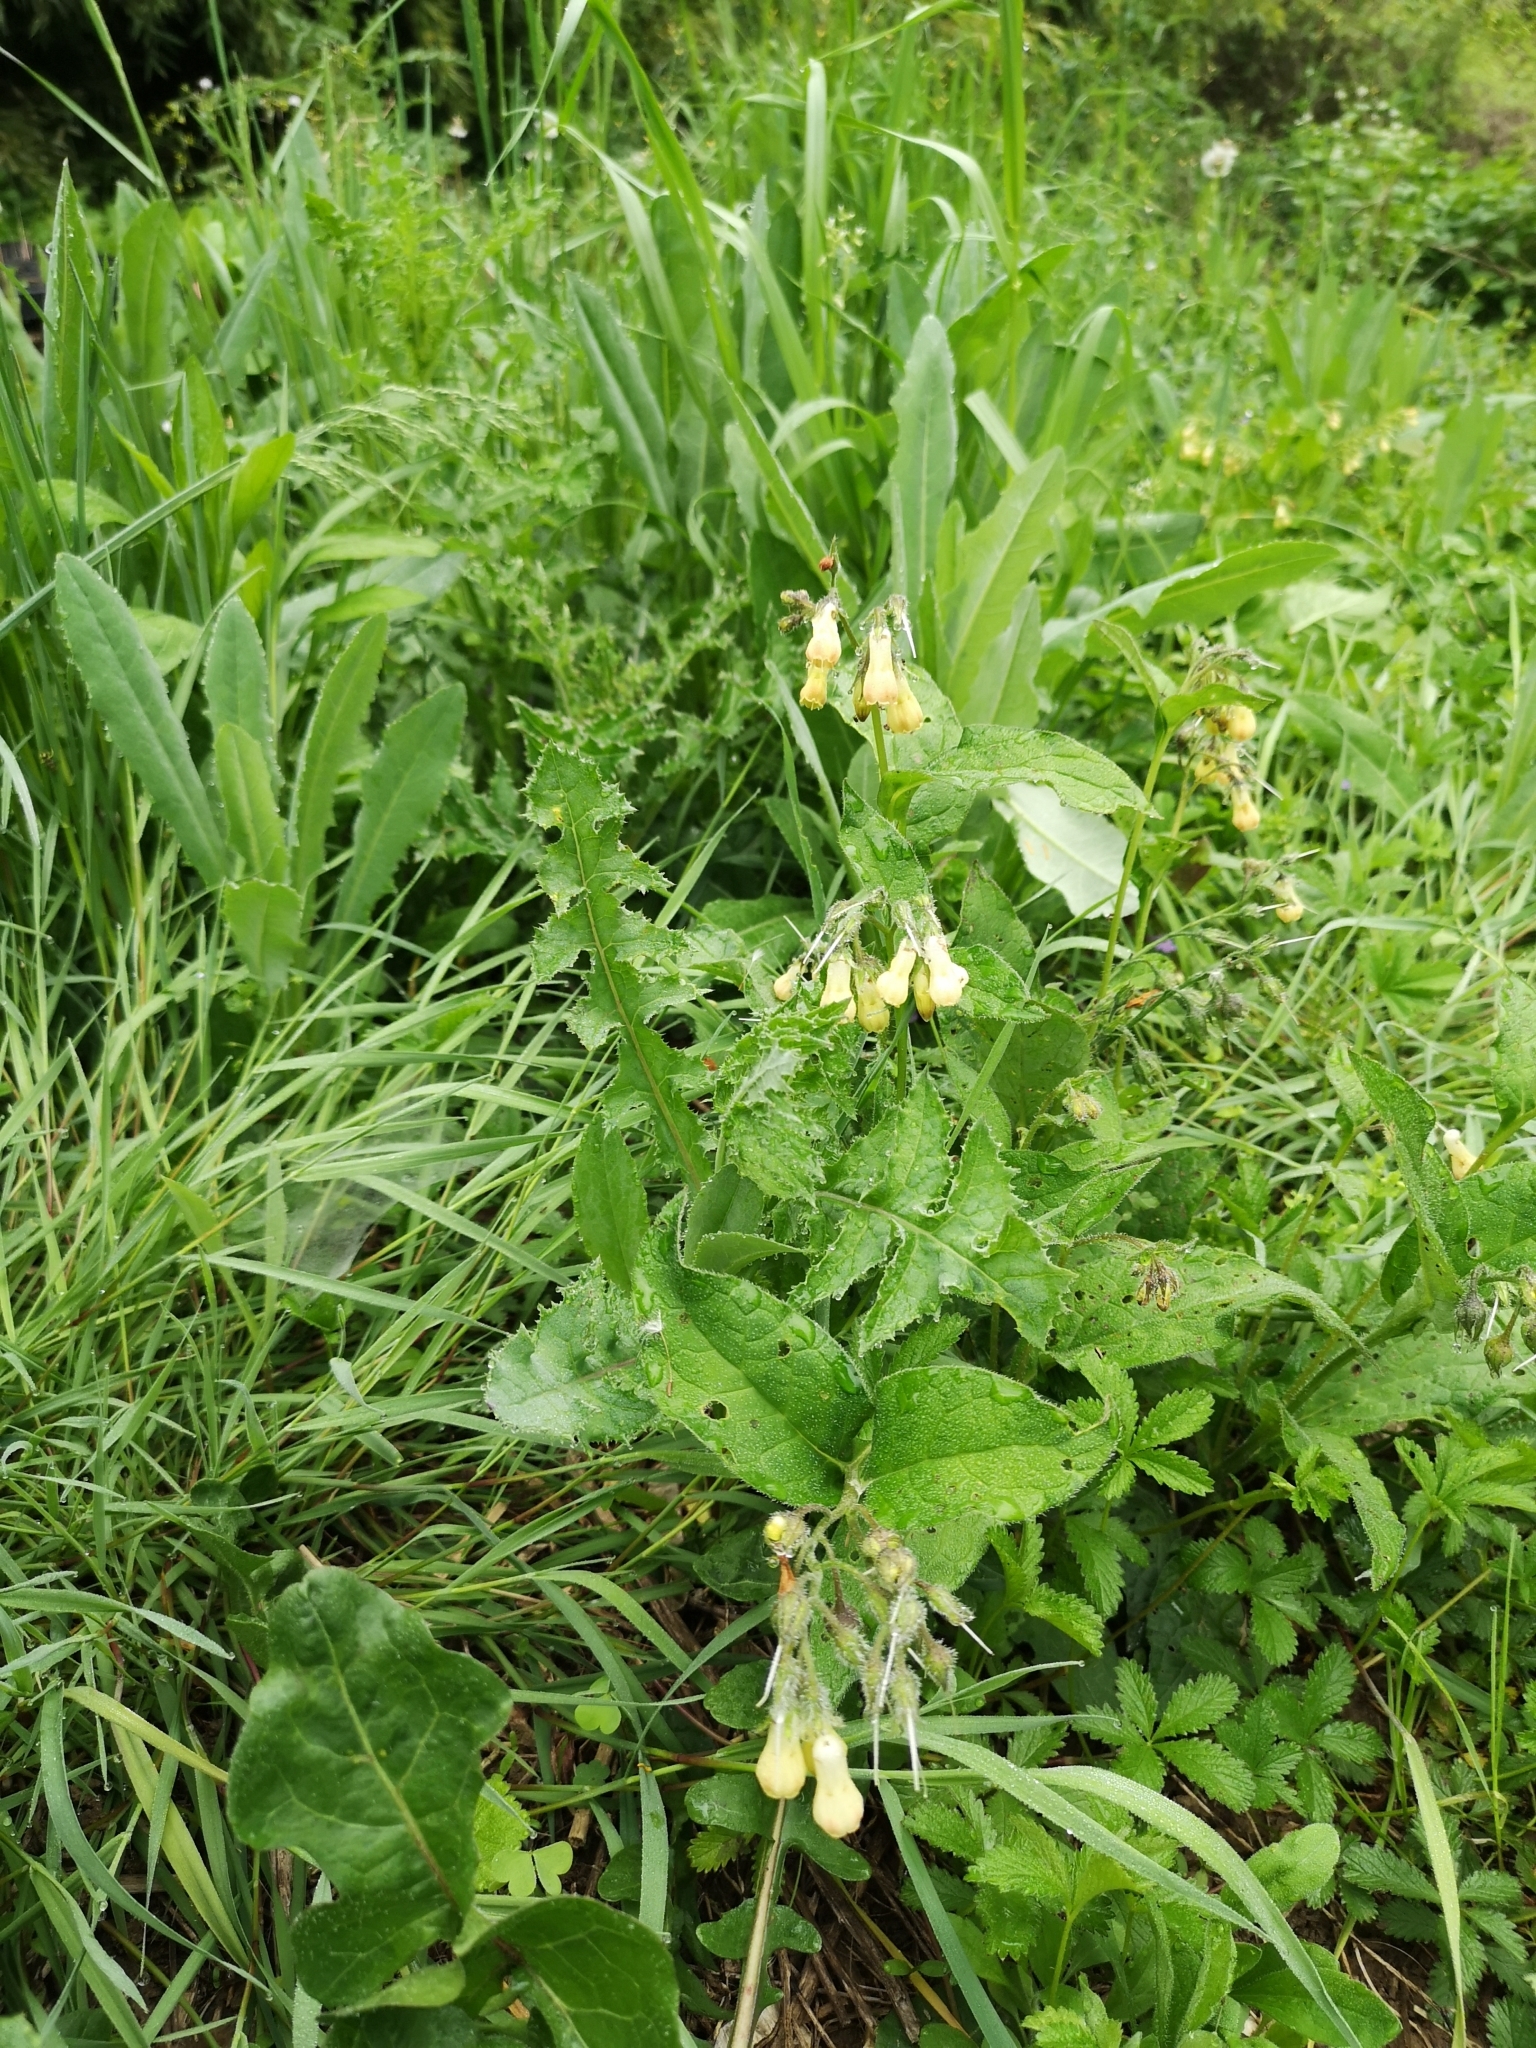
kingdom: Plantae
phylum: Tracheophyta
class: Magnoliopsida
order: Boraginales
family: Boraginaceae
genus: Symphytum
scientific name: Symphytum tuberosum
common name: Tuberous comfrey
